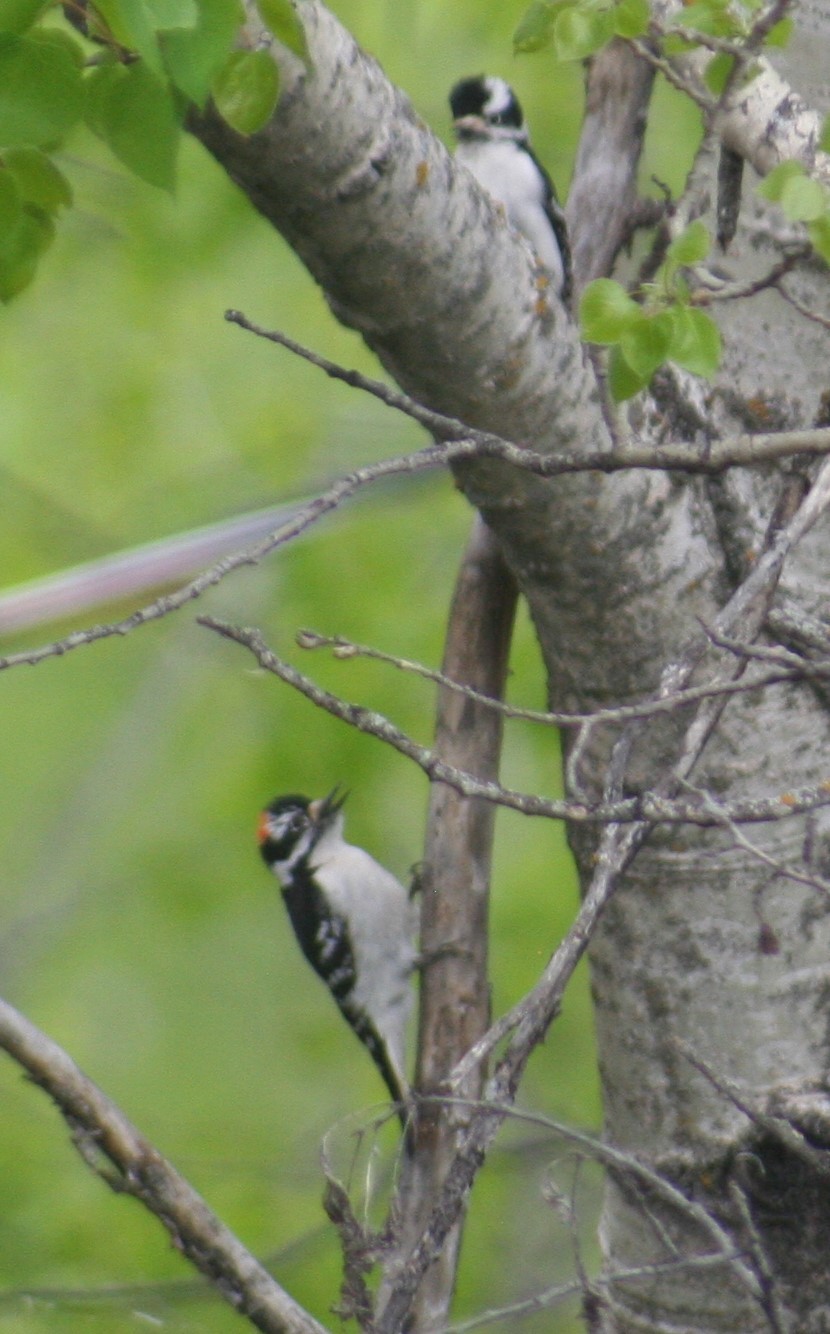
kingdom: Animalia
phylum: Chordata
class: Aves
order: Piciformes
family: Picidae
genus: Dryobates
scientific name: Dryobates pubescens
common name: Downy woodpecker
